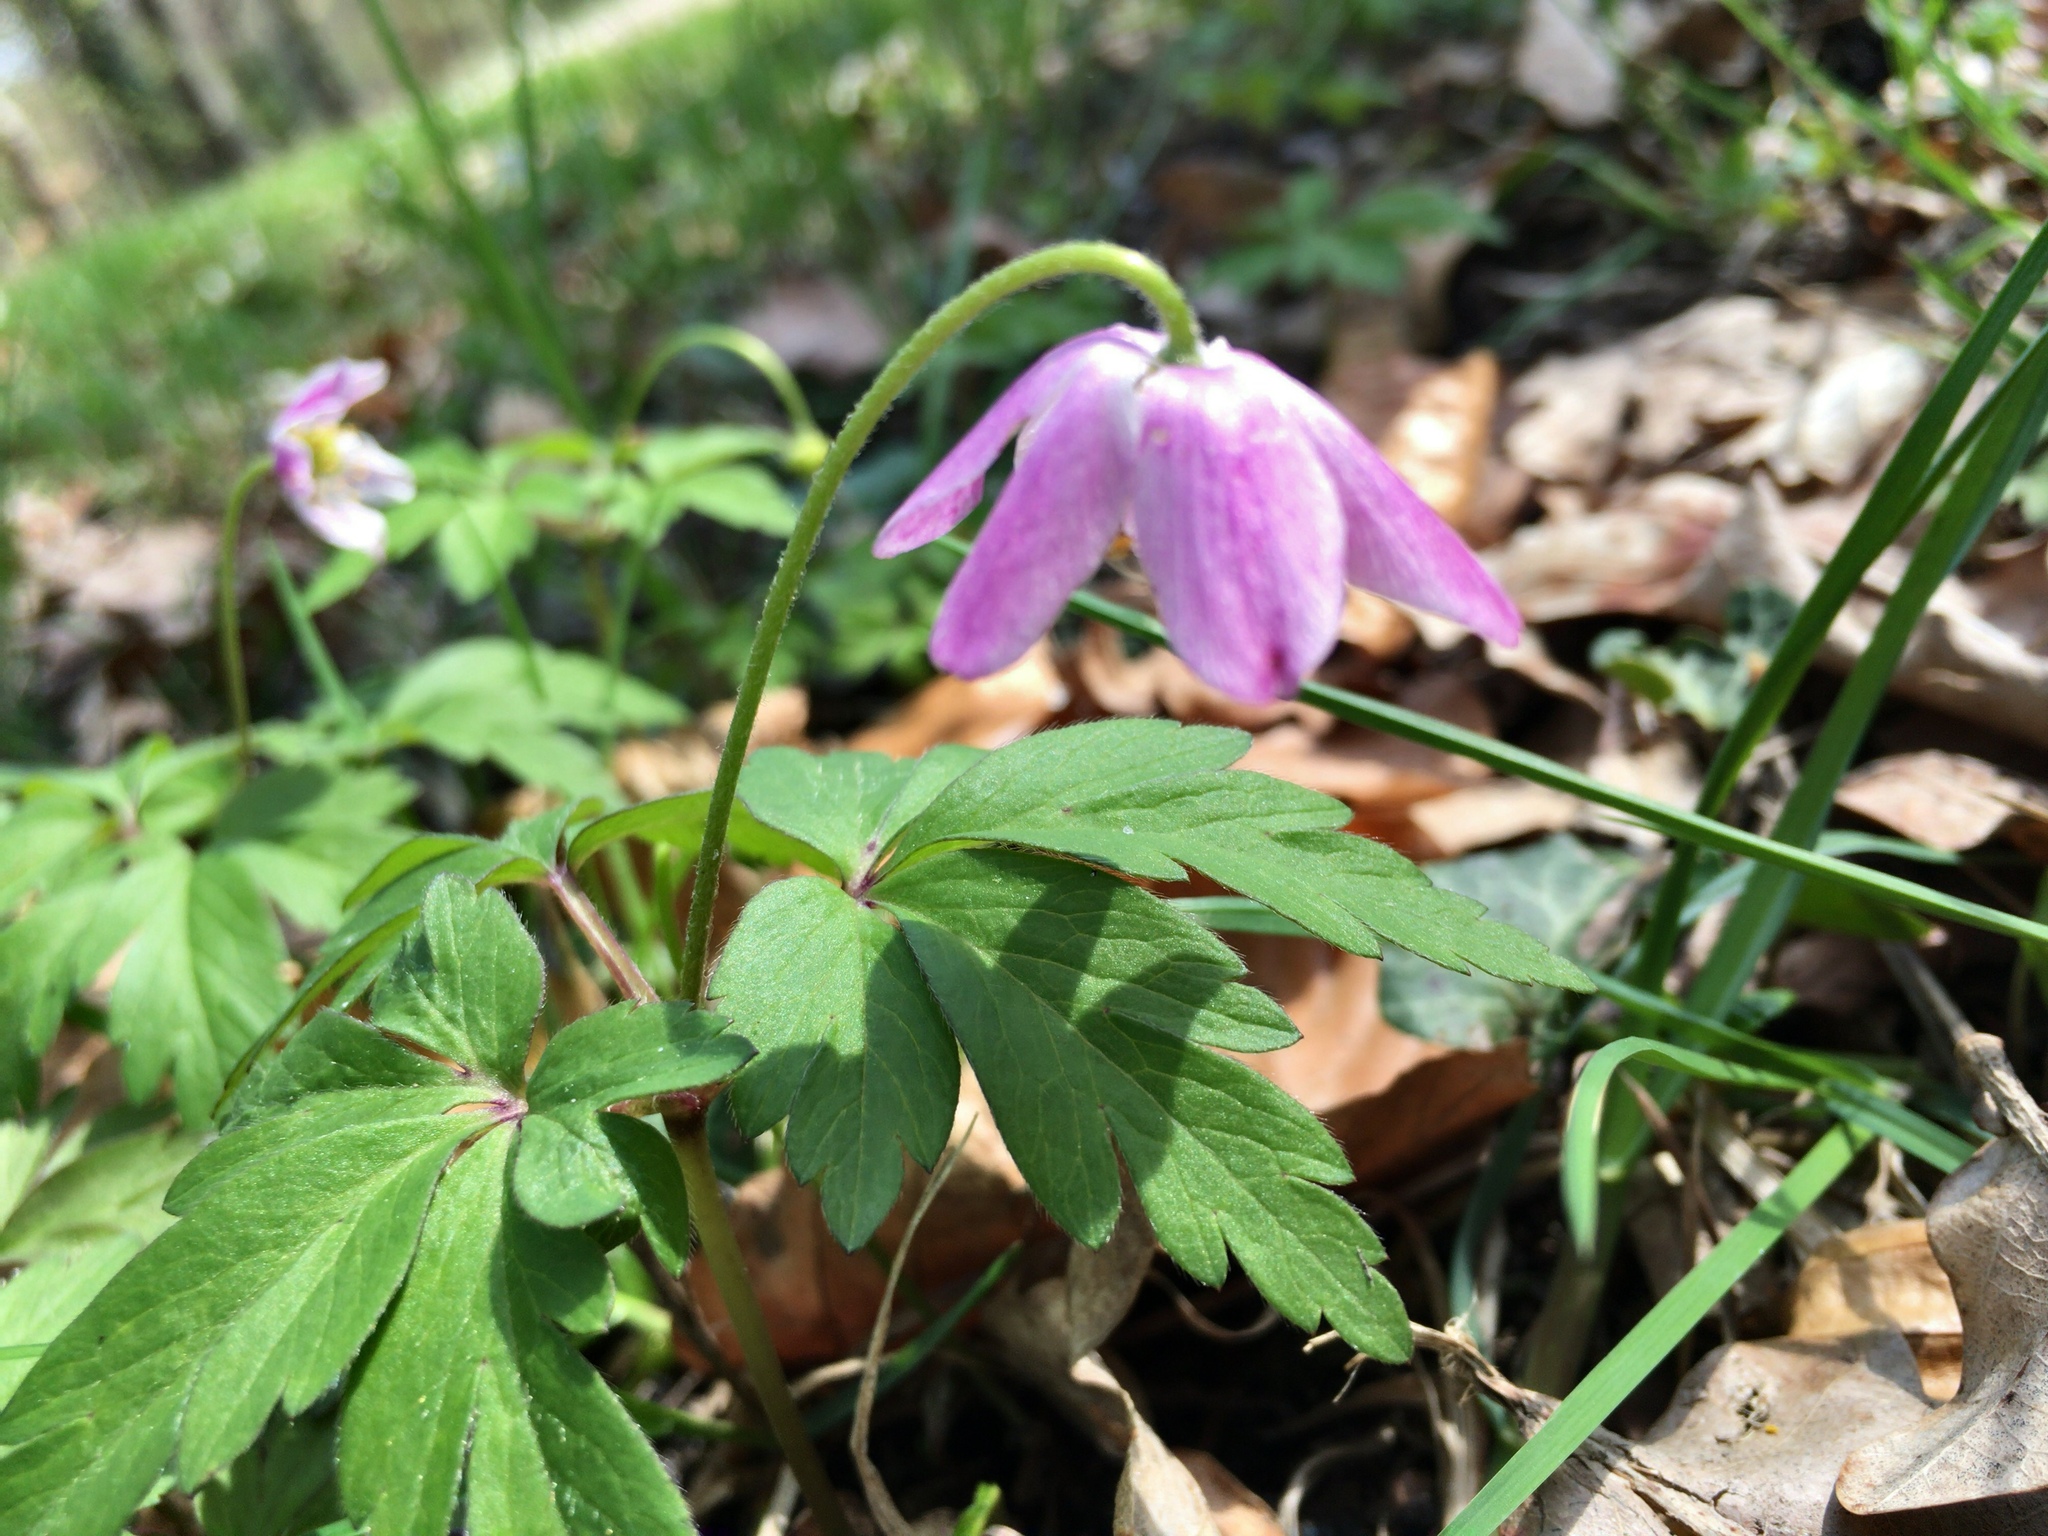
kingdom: Plantae
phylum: Tracheophyta
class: Magnoliopsida
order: Ranunculales
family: Ranunculaceae
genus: Anemone
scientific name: Anemone nemorosa
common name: Wood anemone
